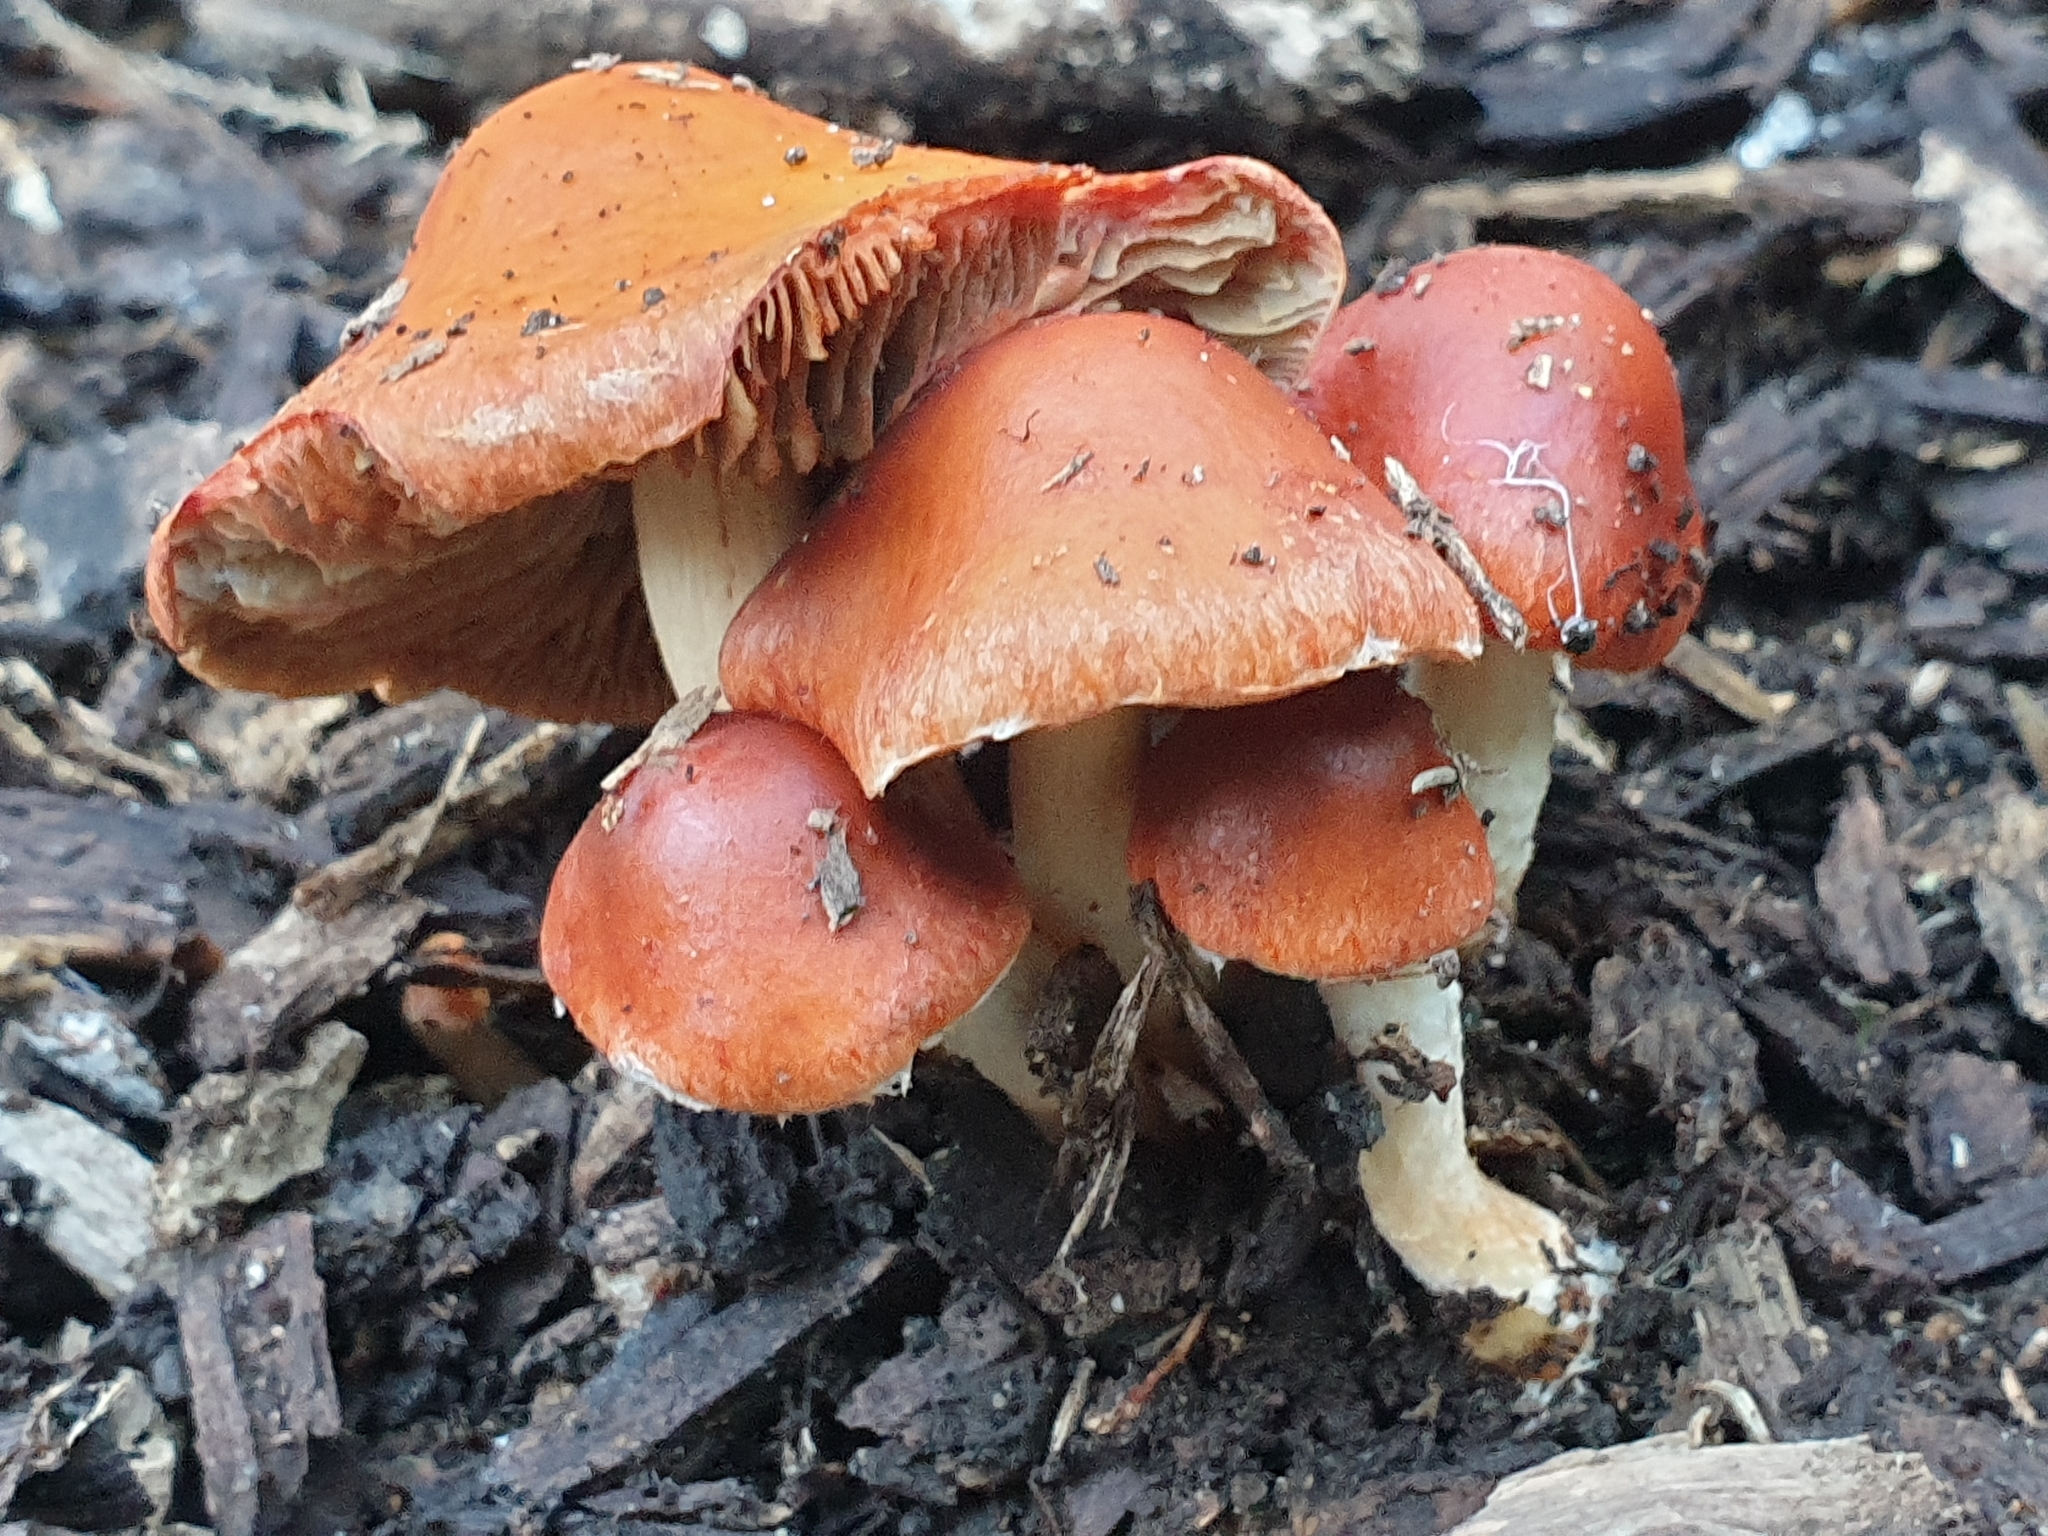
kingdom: Fungi
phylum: Basidiomycota
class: Agaricomycetes
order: Agaricales
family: Strophariaceae
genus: Leratiomyces
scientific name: Leratiomyces ceres
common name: Redlead roundhead
